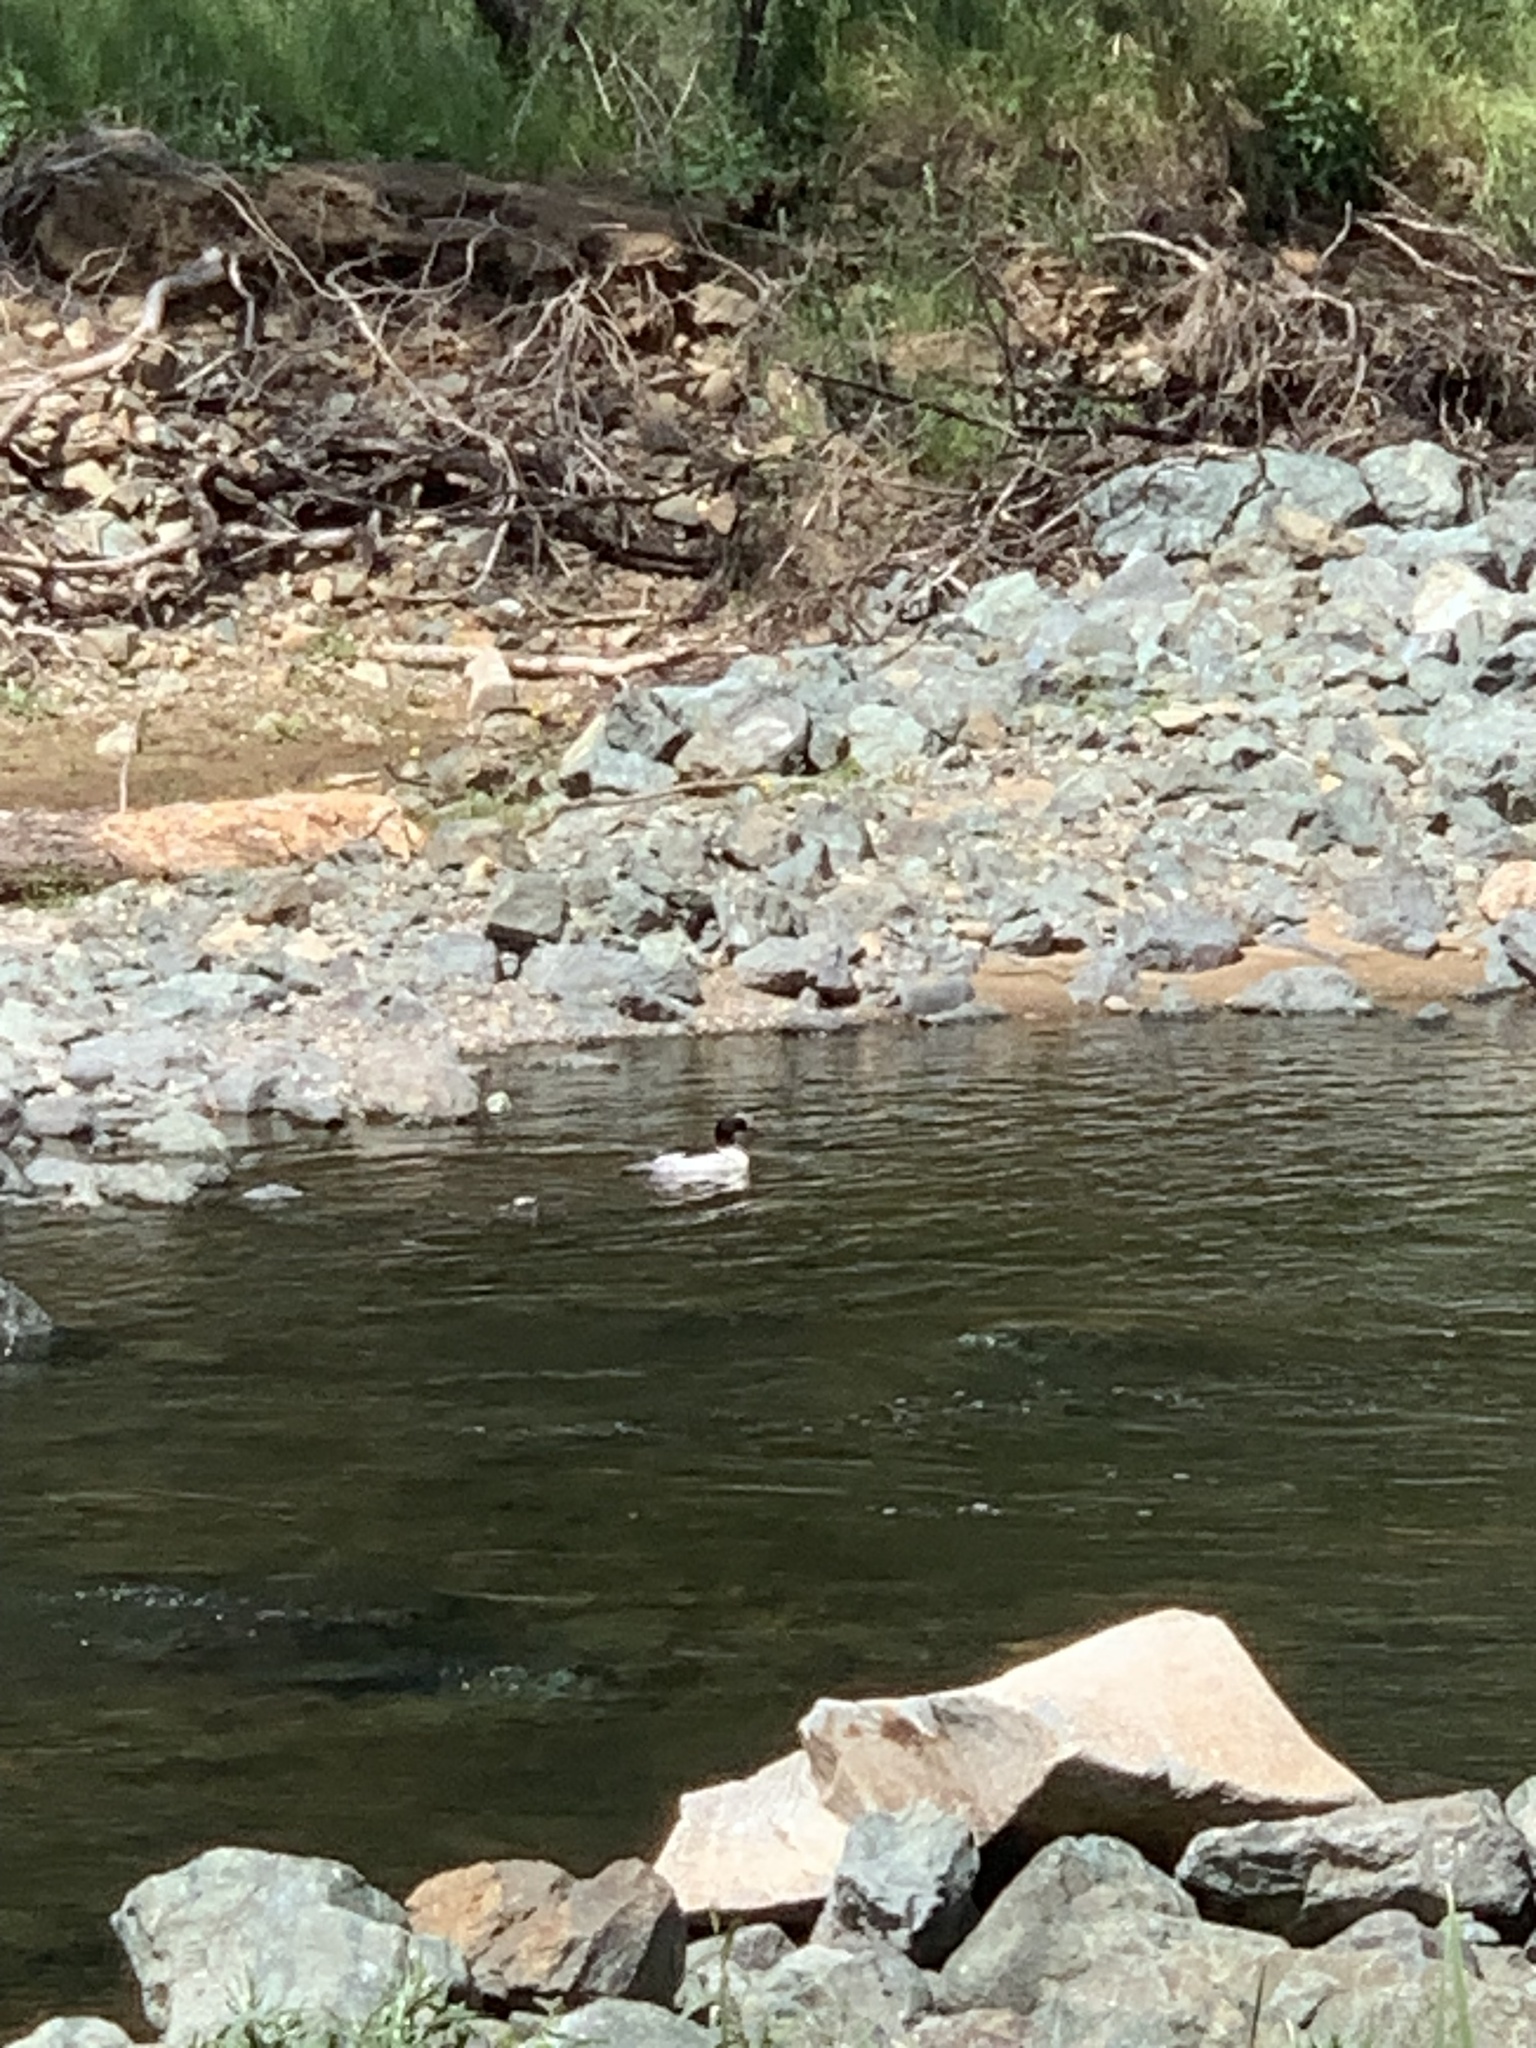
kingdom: Animalia
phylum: Chordata
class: Aves
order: Anseriformes
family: Anatidae
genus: Mergus
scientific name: Mergus merganser
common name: Common merganser
